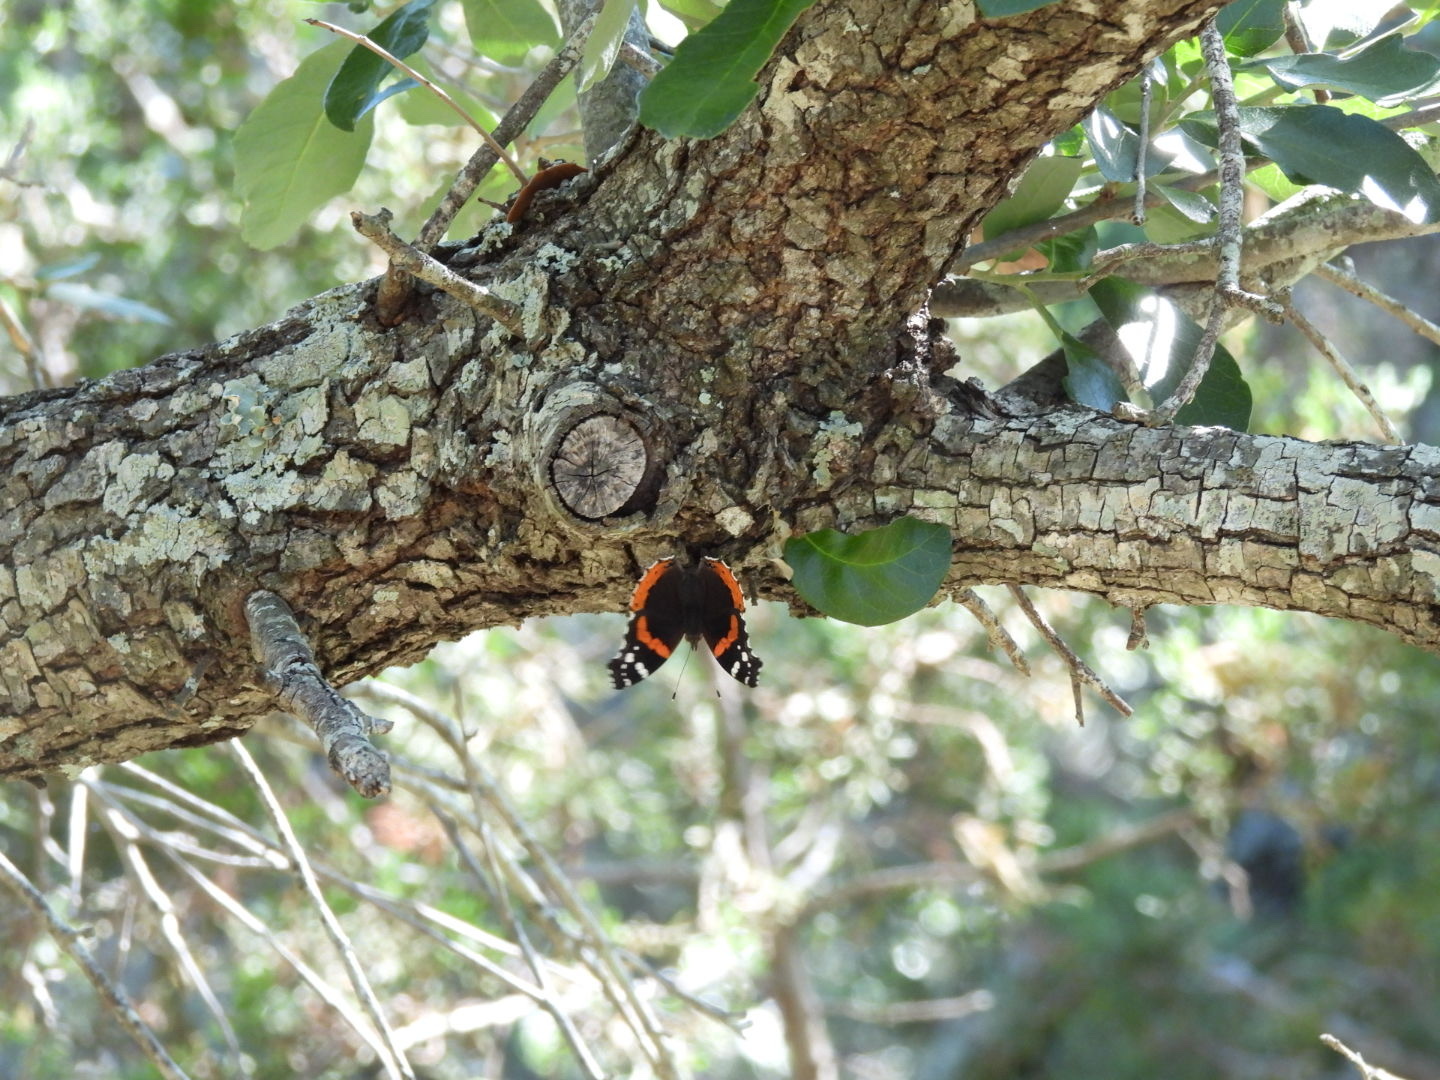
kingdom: Animalia
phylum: Arthropoda
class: Insecta
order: Lepidoptera
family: Nymphalidae
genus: Vanessa
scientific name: Vanessa atalanta
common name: Red admiral
